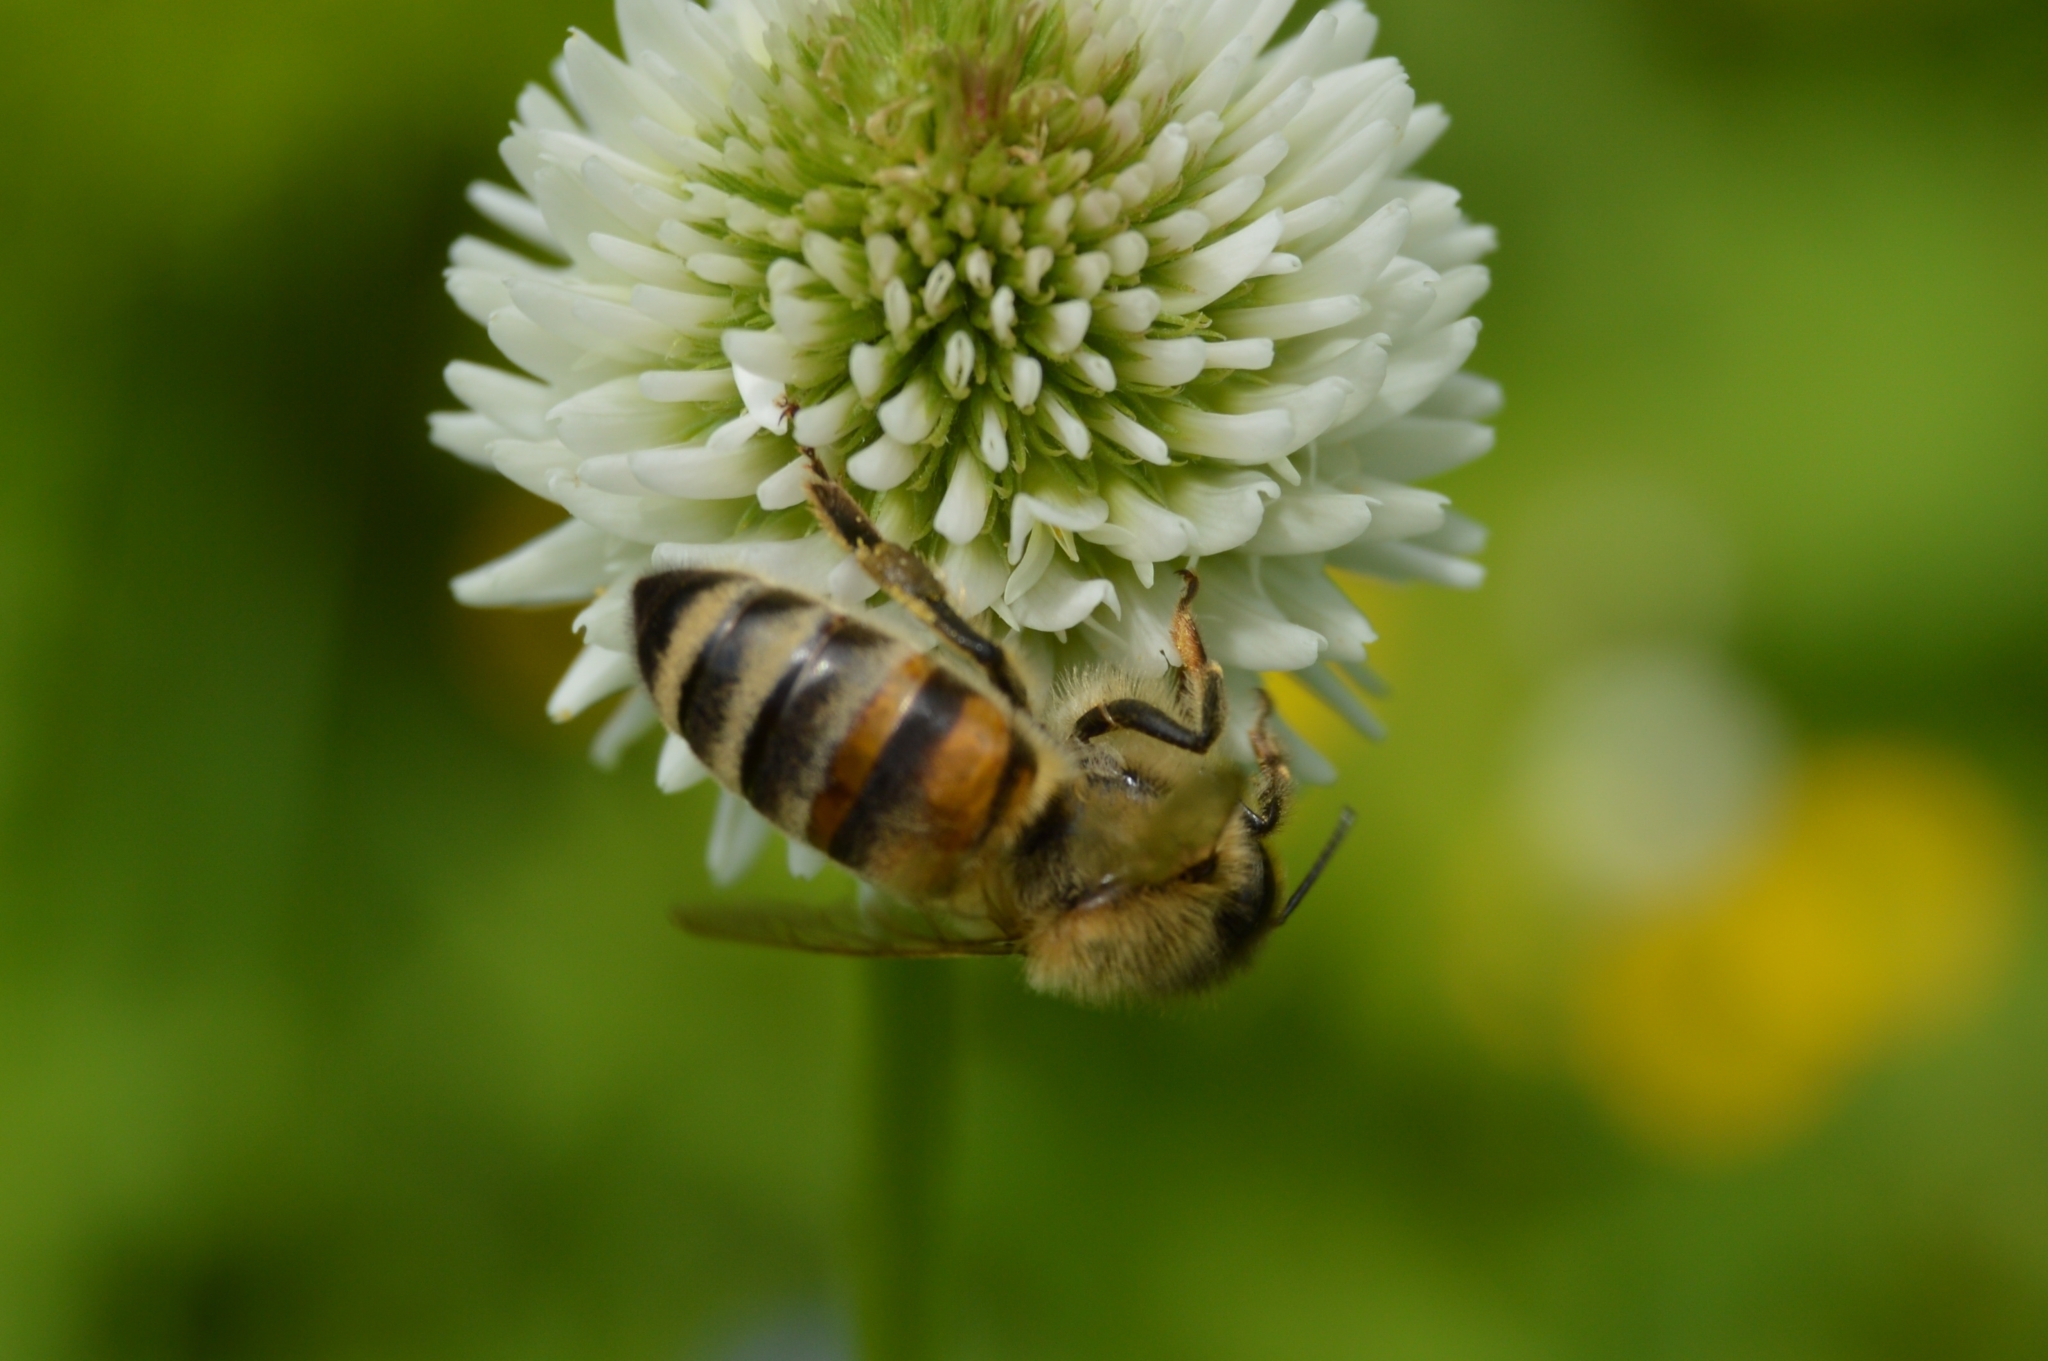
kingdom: Animalia
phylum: Arthropoda
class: Insecta
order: Hymenoptera
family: Apidae
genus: Apis
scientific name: Apis mellifera
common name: Honey bee
